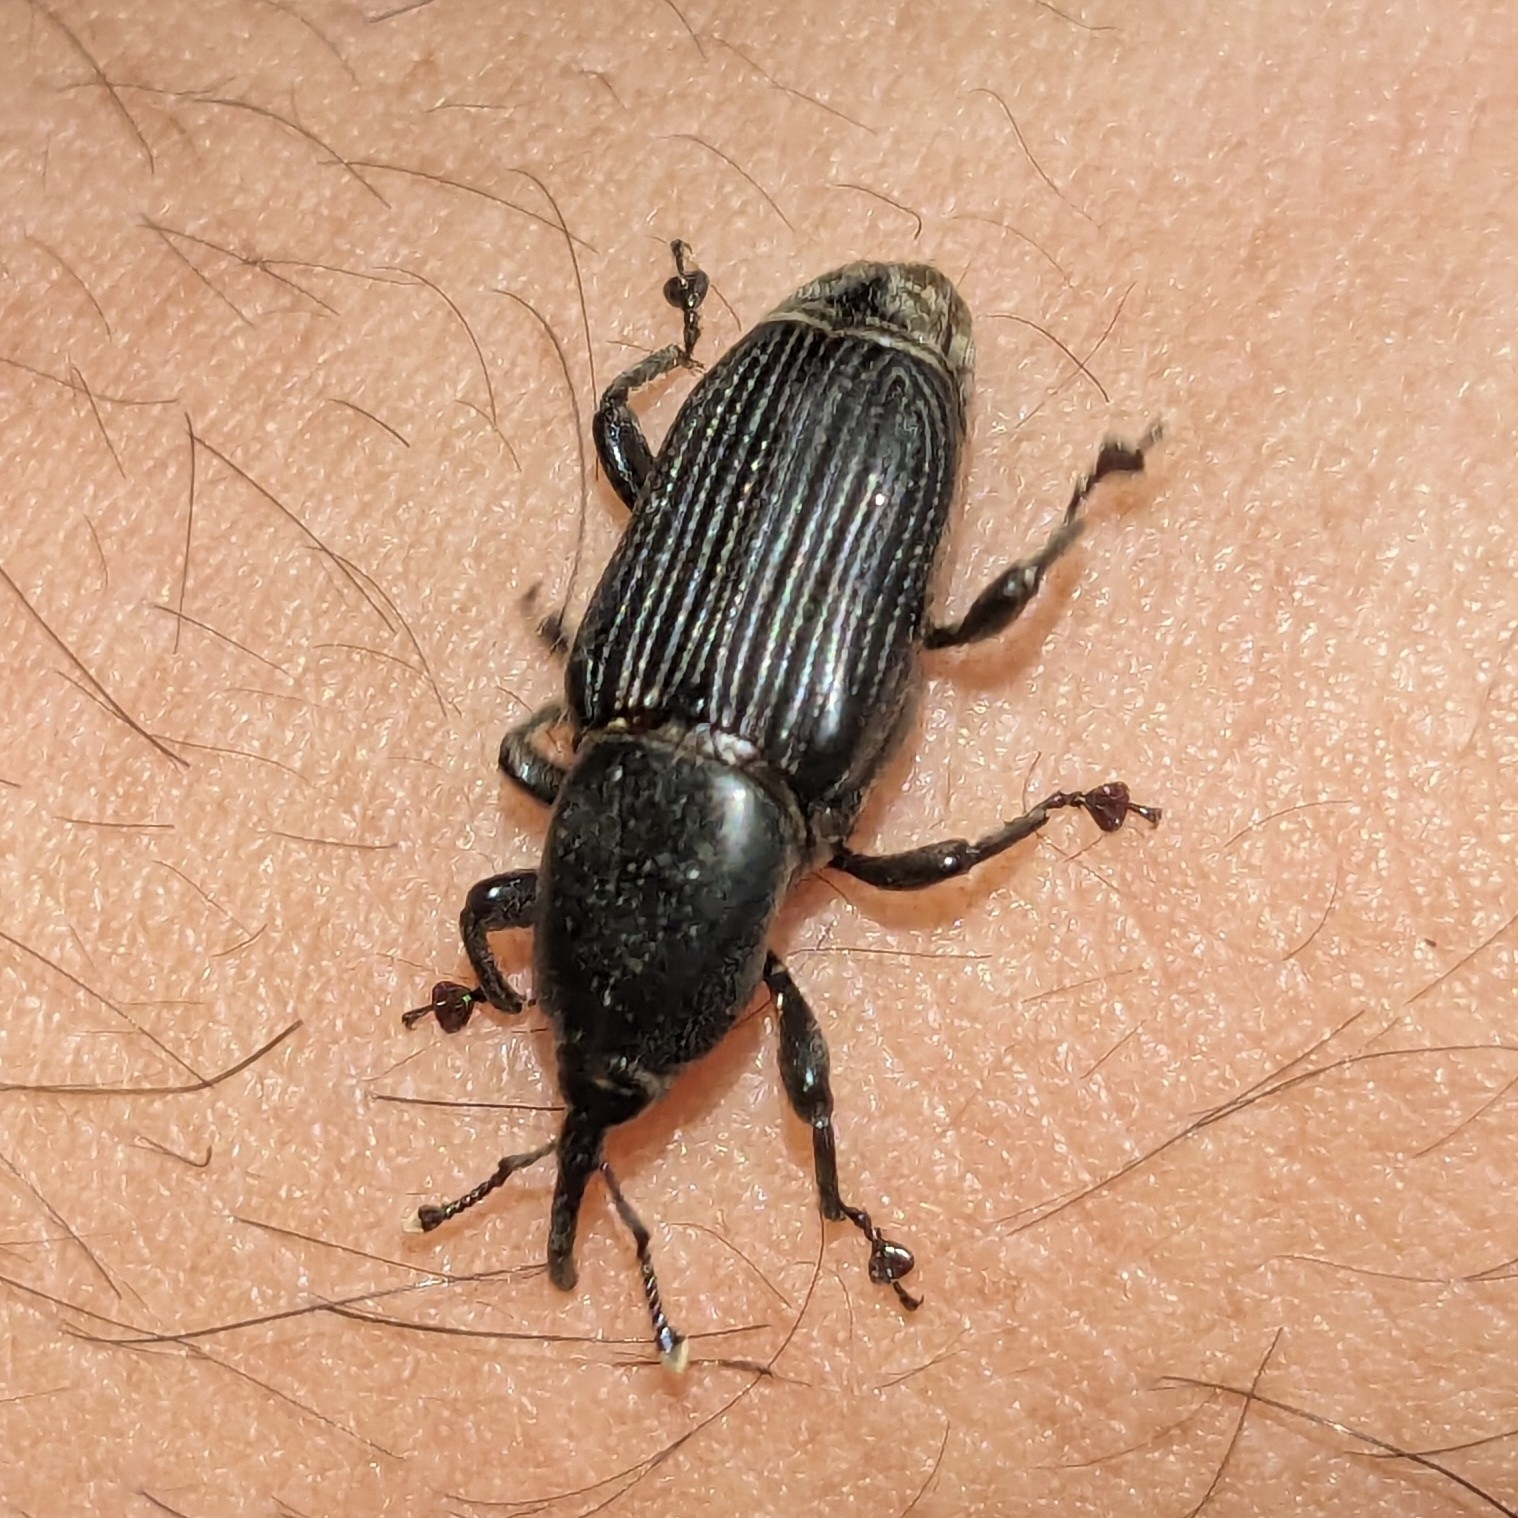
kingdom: Animalia
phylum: Arthropoda
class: Insecta
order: Coleoptera
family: Dryophthoridae
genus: Odoiporus
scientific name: Odoiporus longicollis
